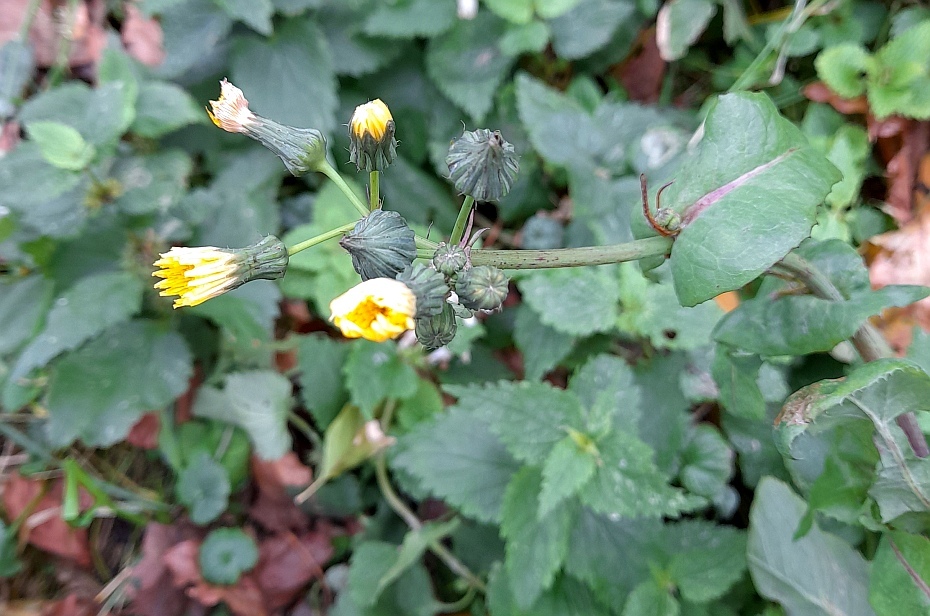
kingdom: Plantae
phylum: Tracheophyta
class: Magnoliopsida
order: Asterales
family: Asteraceae
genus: Sonchus
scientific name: Sonchus oleraceus
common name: Common sowthistle
